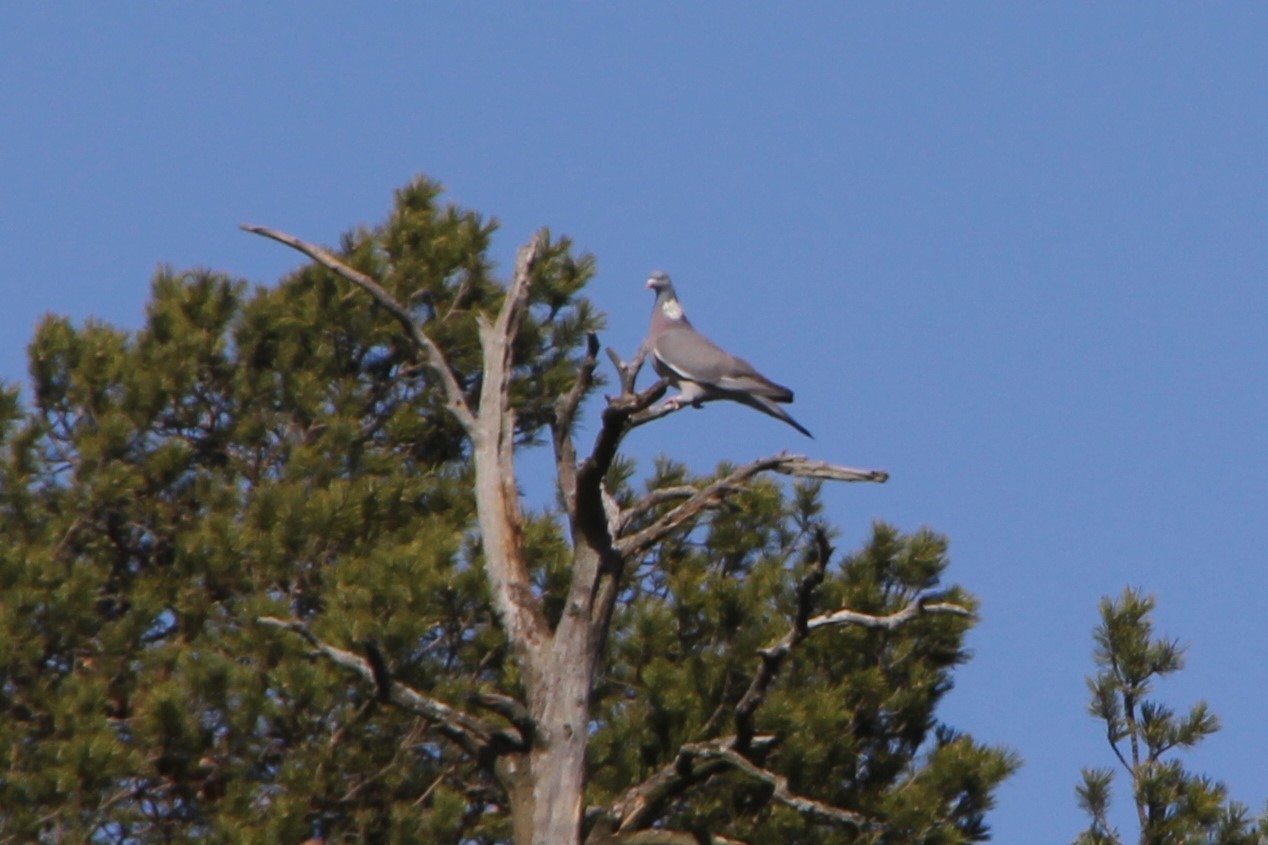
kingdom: Animalia
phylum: Chordata
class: Aves
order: Columbiformes
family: Columbidae
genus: Columba
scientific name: Columba palumbus
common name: Common wood pigeon
